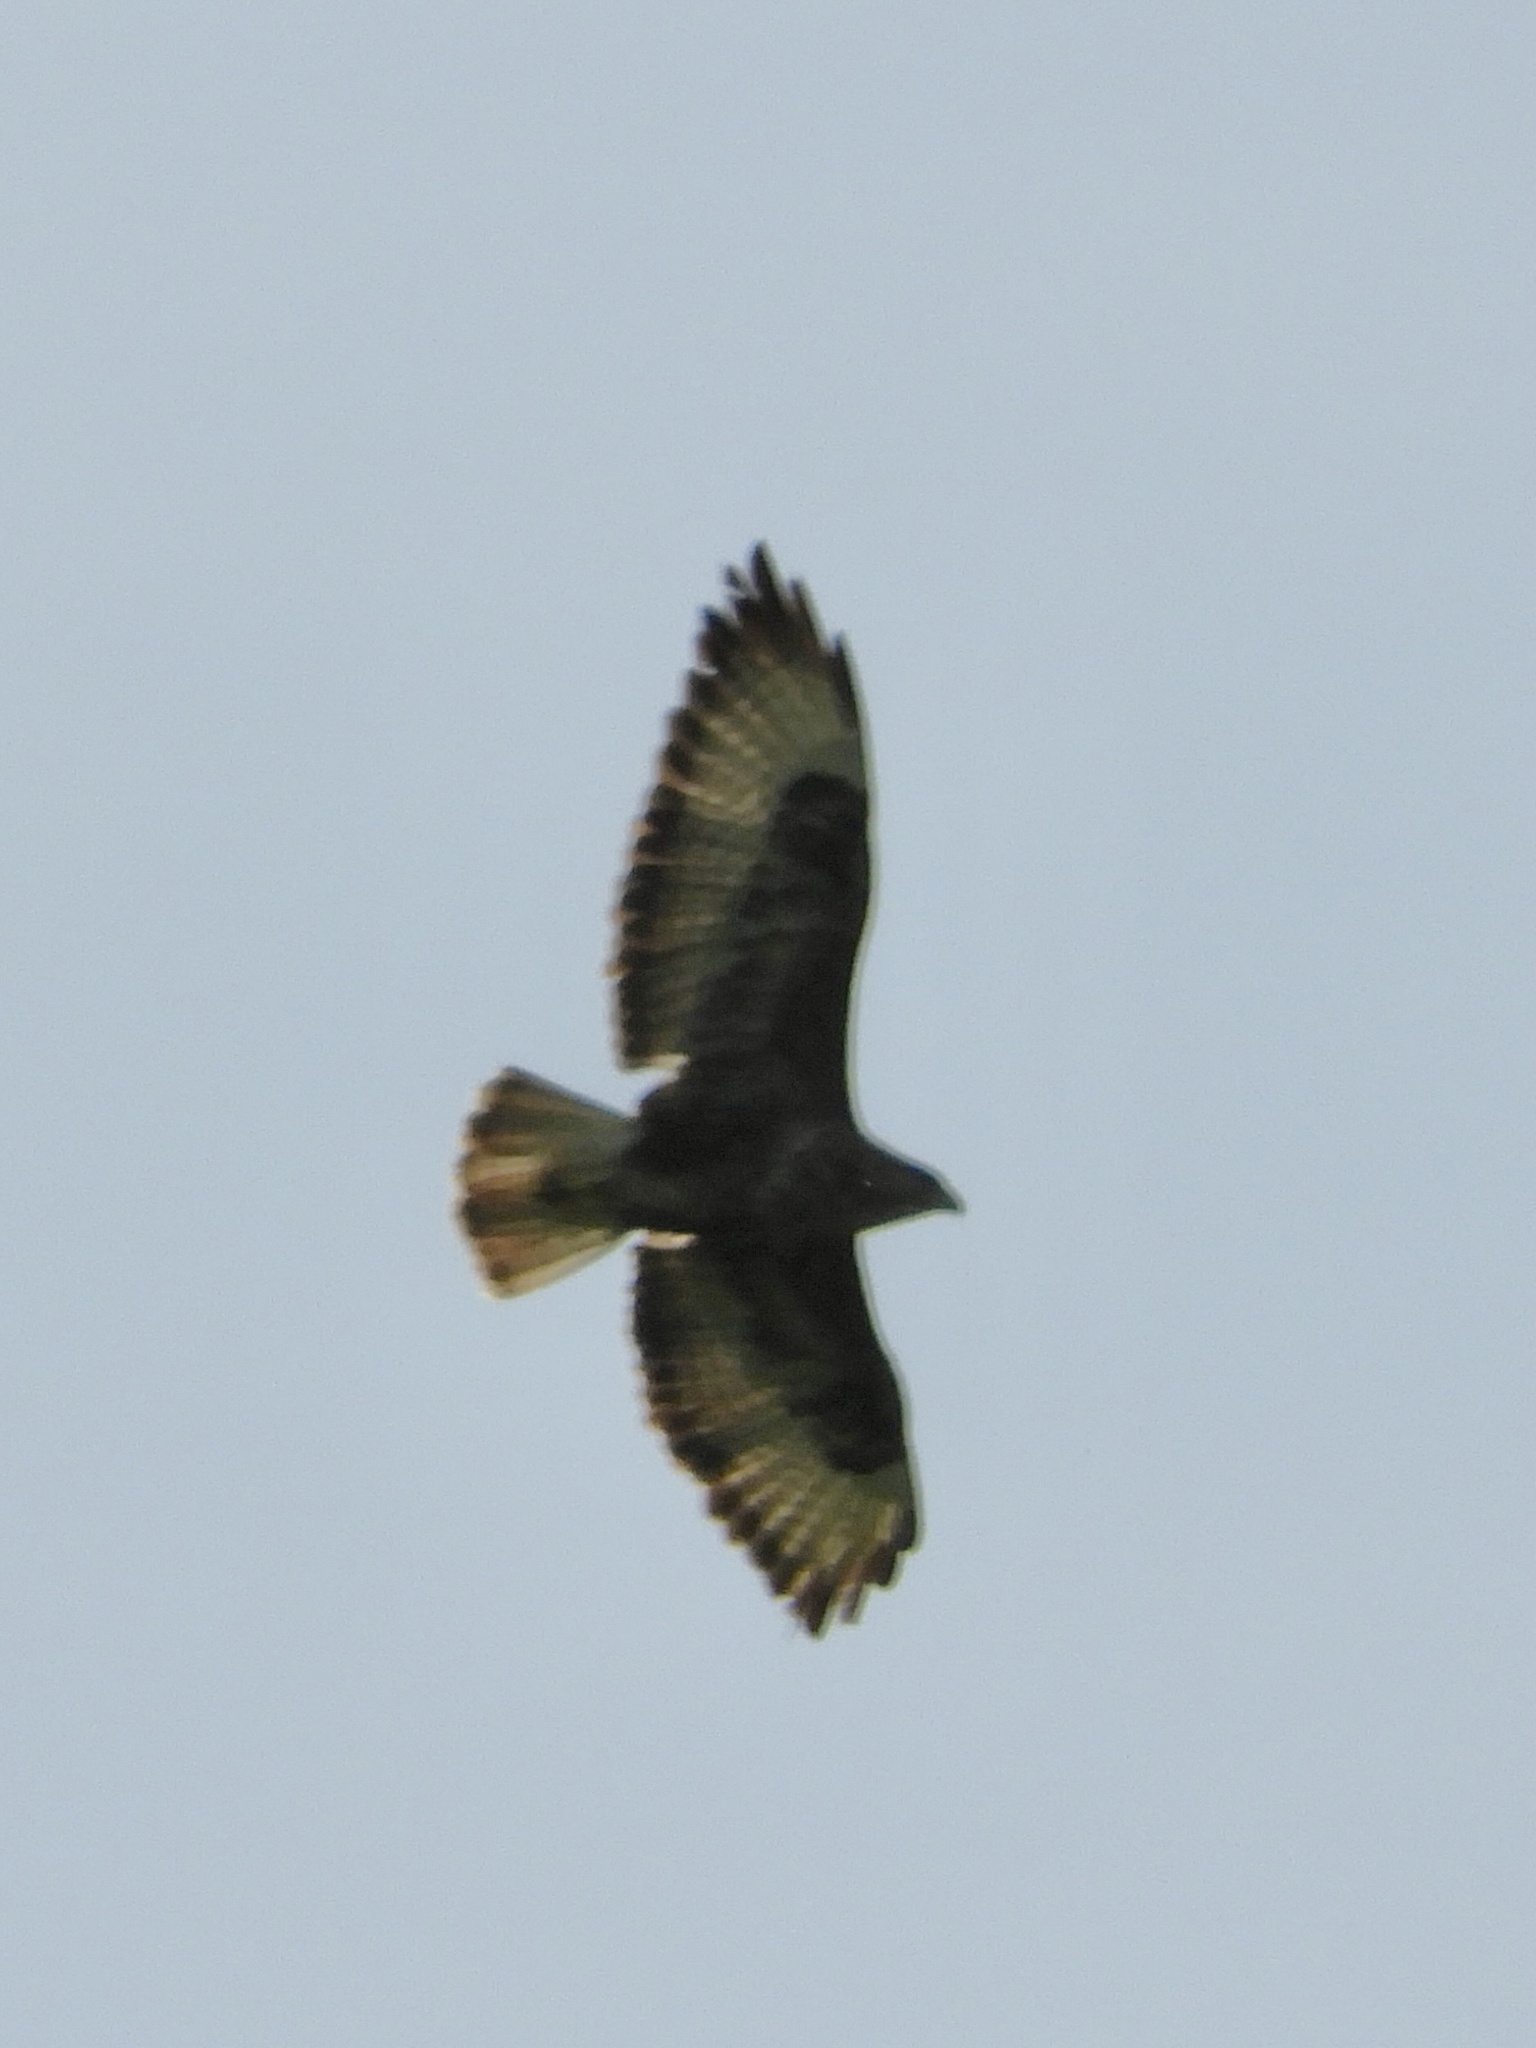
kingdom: Animalia
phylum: Chordata
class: Aves
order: Accipitriformes
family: Accipitridae
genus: Buteo
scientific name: Buteo buteo
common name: Common buzzard
